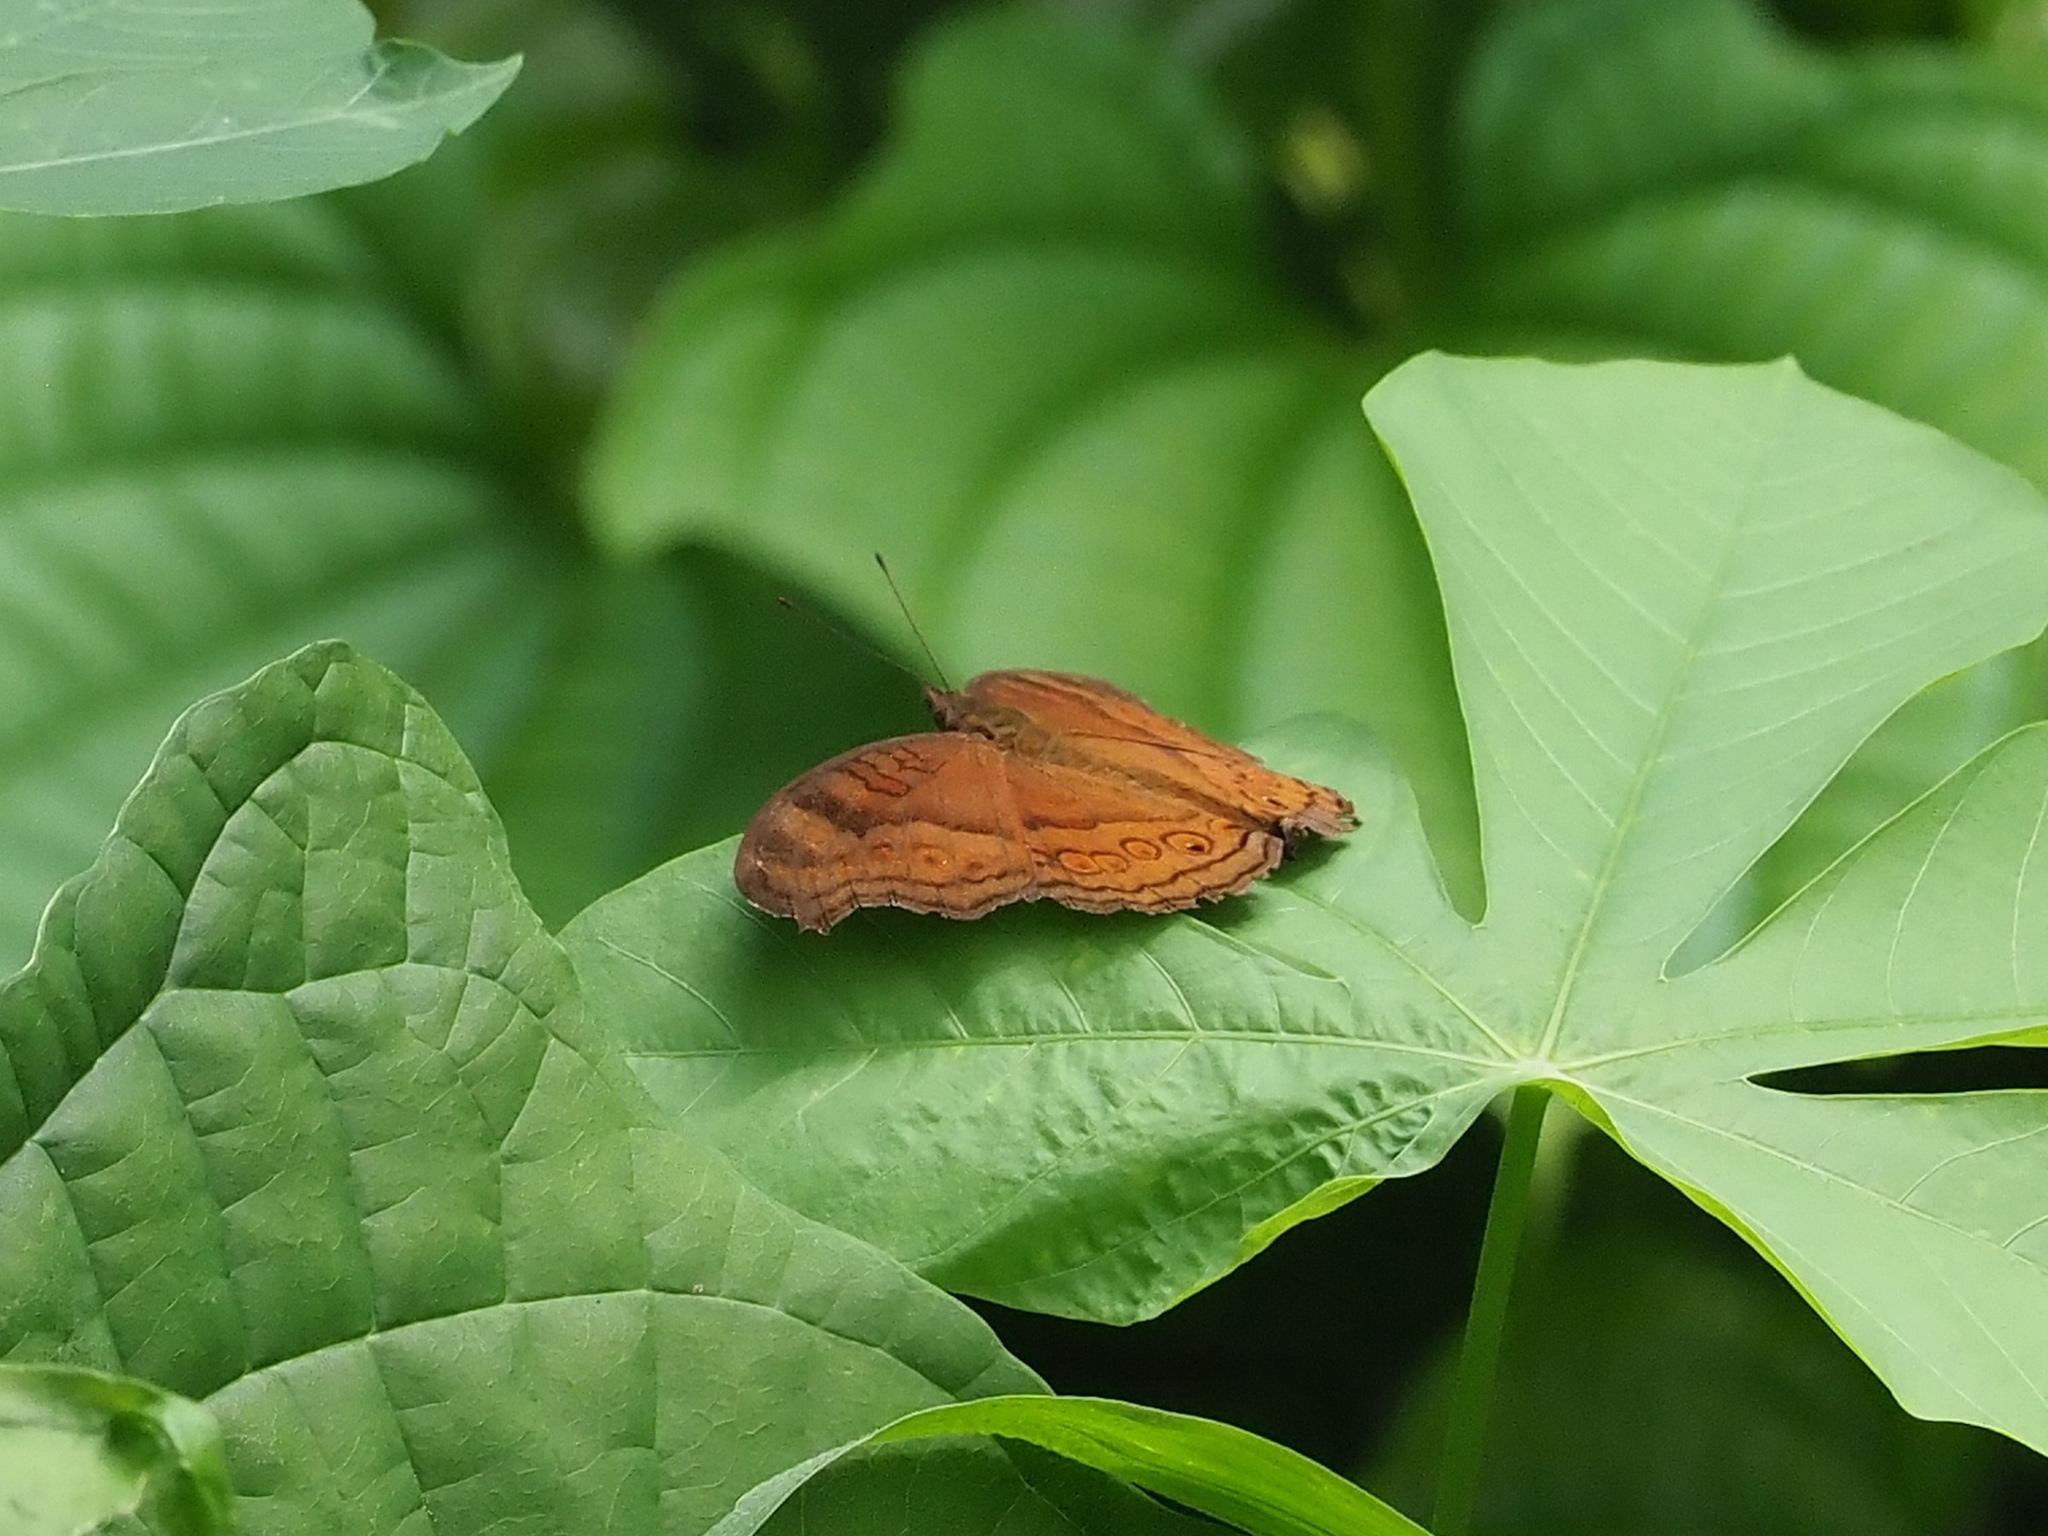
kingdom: Animalia
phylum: Arthropoda
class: Insecta
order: Lepidoptera
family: Nymphalidae
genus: Junonia
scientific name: Junonia hedonia
